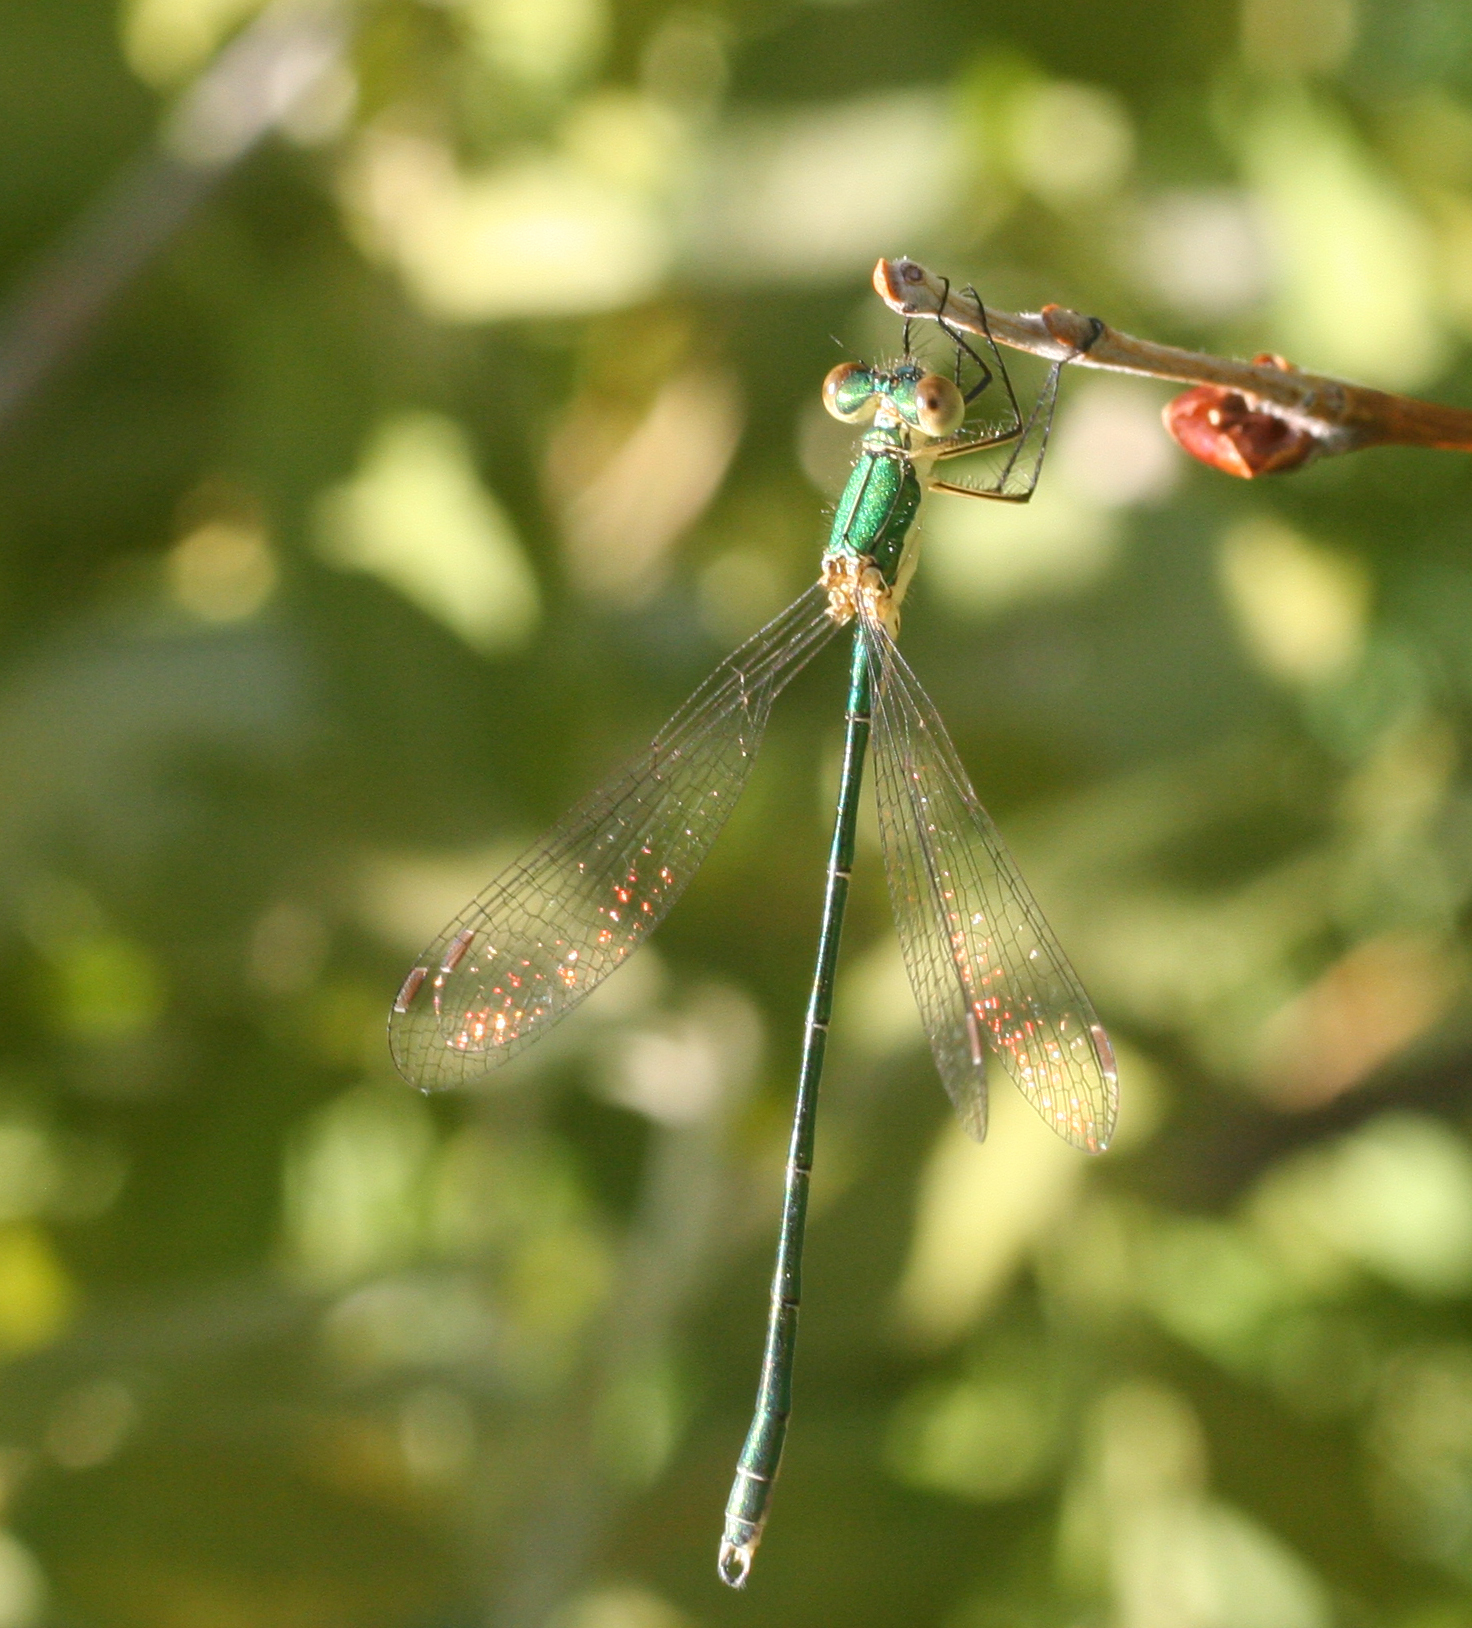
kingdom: Animalia
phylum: Arthropoda
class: Insecta
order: Odonata
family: Lestidae
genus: Lestes
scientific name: Lestes virens
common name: Small emerald spreadwing
